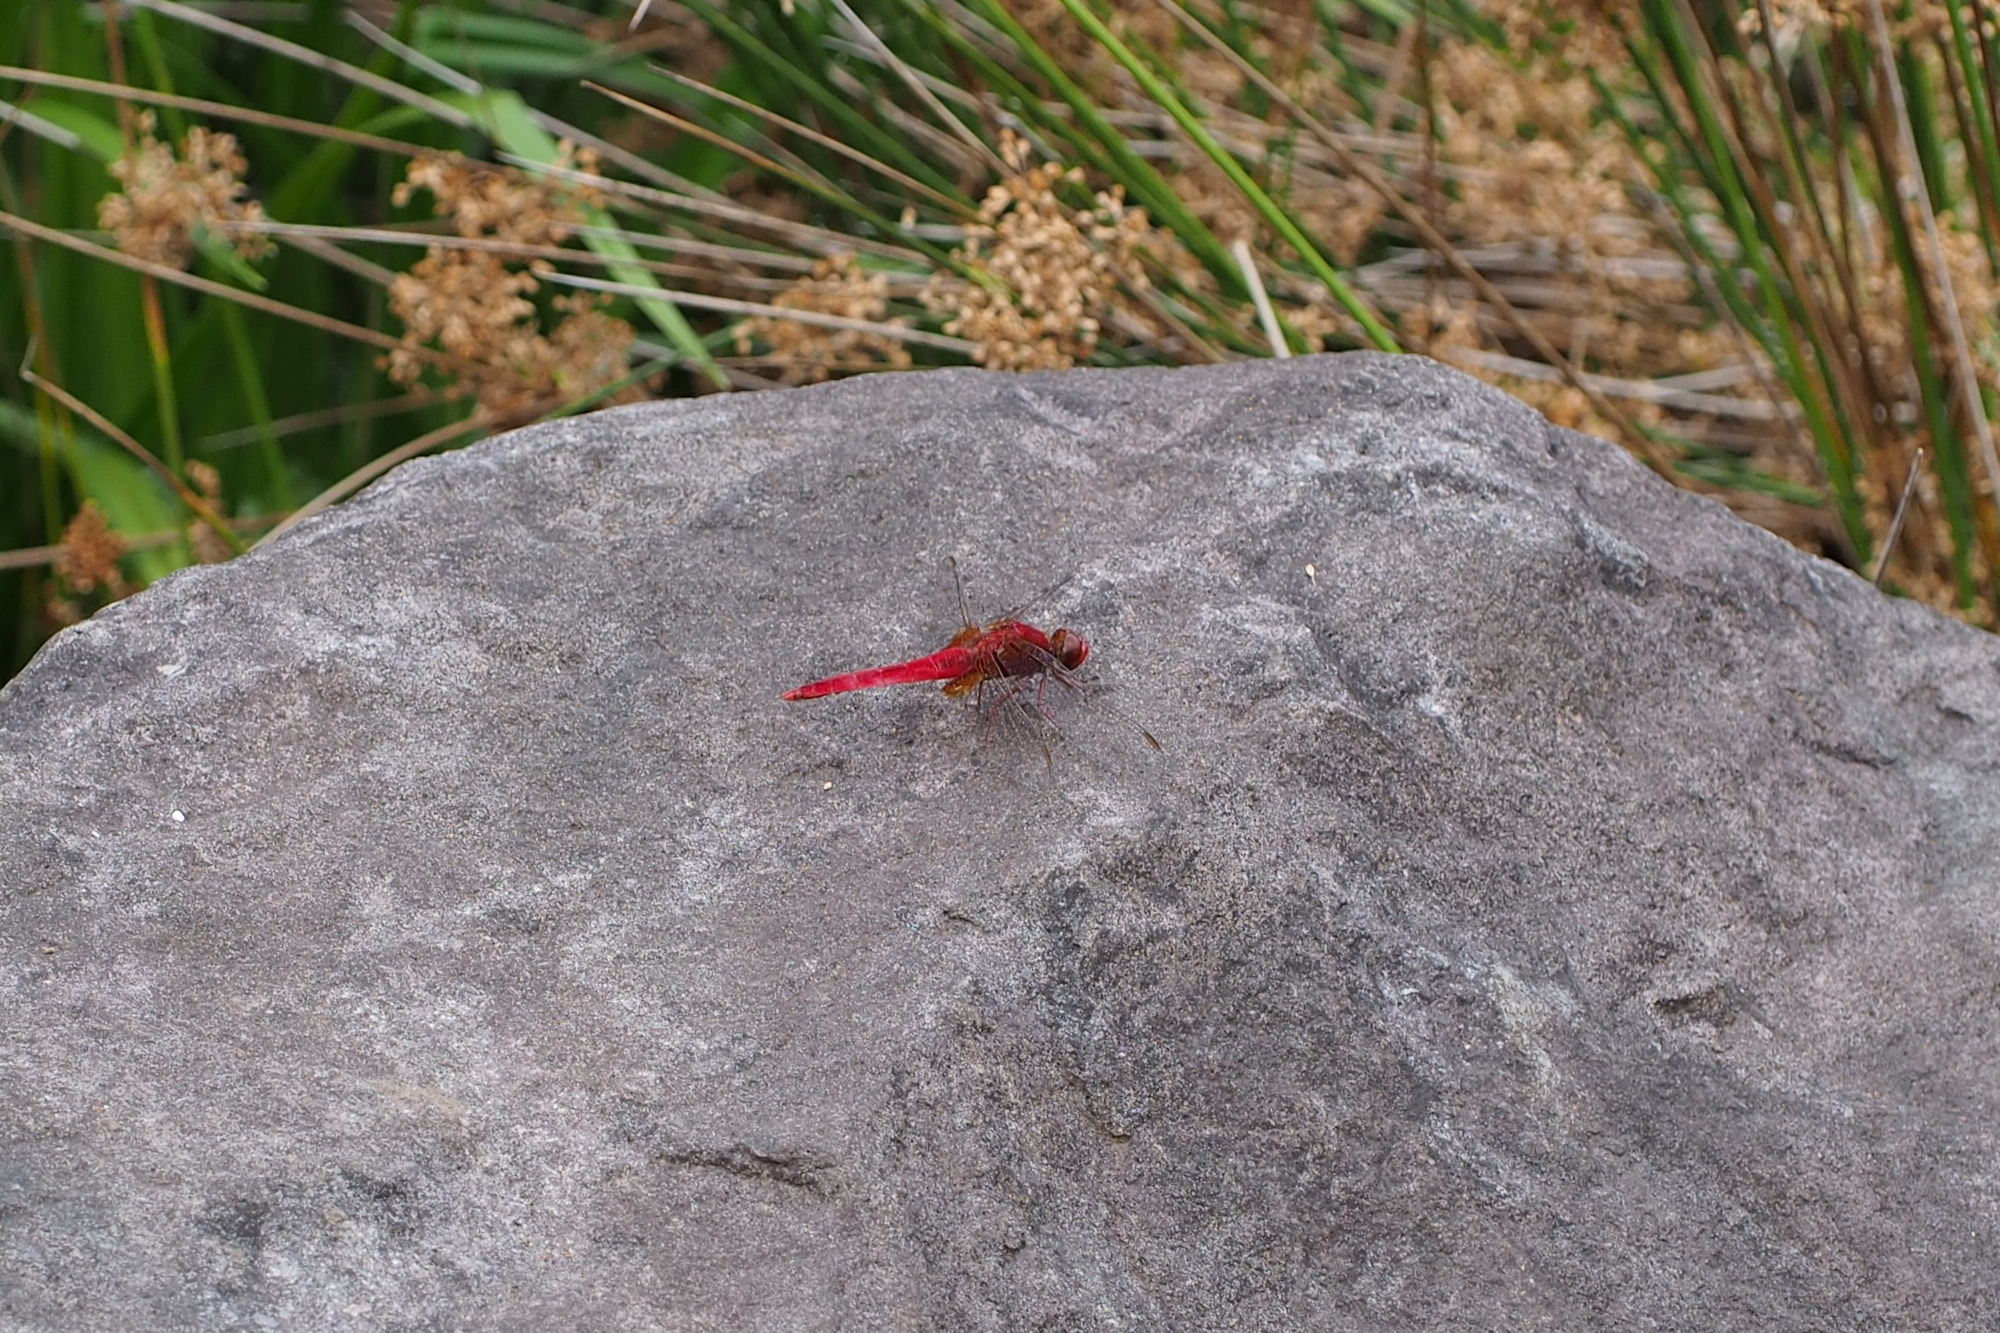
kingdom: Animalia
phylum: Arthropoda
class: Insecta
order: Odonata
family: Libellulidae
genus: Crocothemis
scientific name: Crocothemis servilia
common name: Scarlet skimmer
